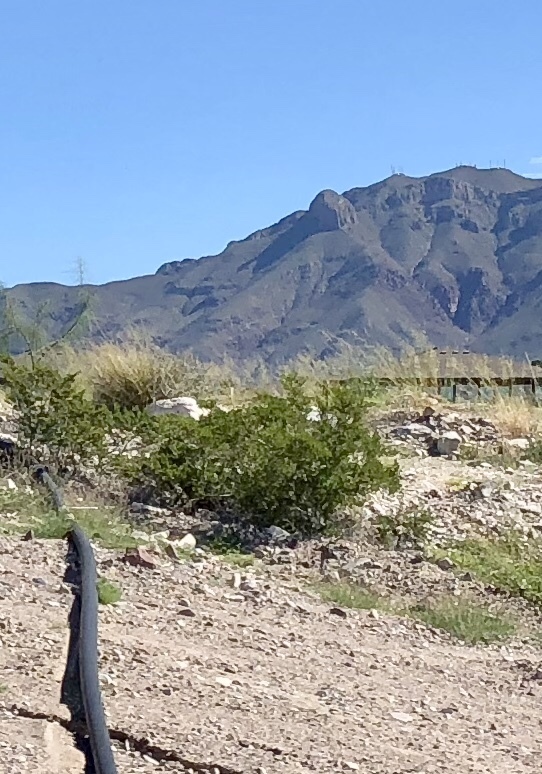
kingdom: Plantae
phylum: Tracheophyta
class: Magnoliopsida
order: Zygophyllales
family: Zygophyllaceae
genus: Larrea
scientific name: Larrea tridentata
